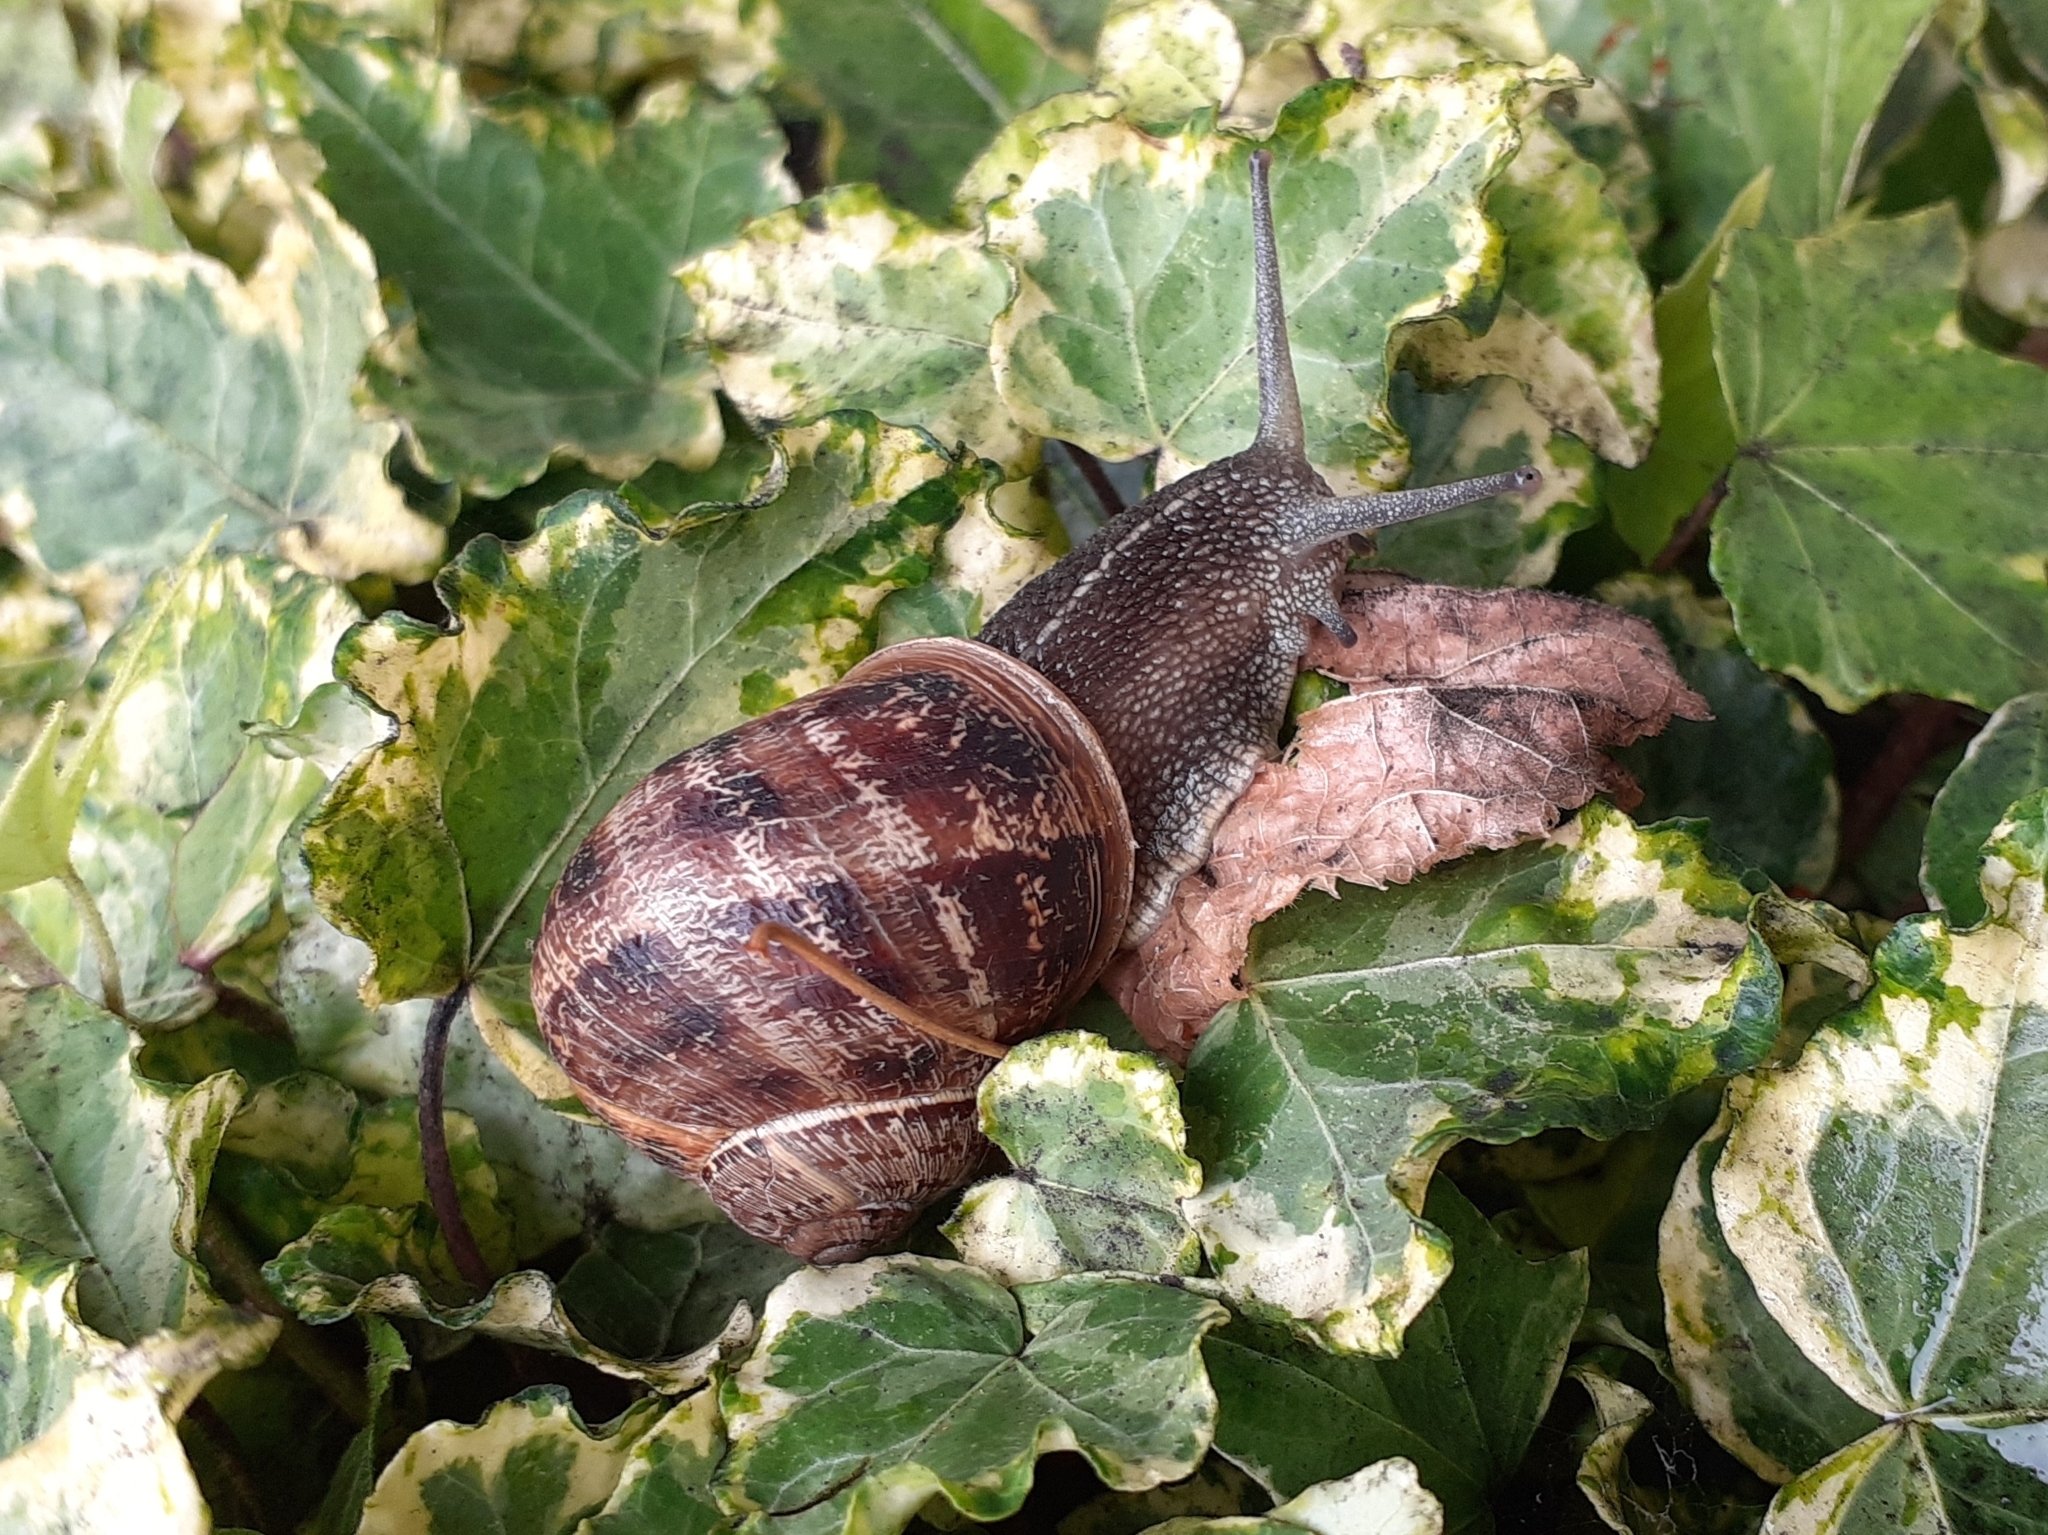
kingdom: Animalia
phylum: Mollusca
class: Gastropoda
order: Stylommatophora
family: Helicidae
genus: Cornu
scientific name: Cornu aspersum
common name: Brown garden snail
